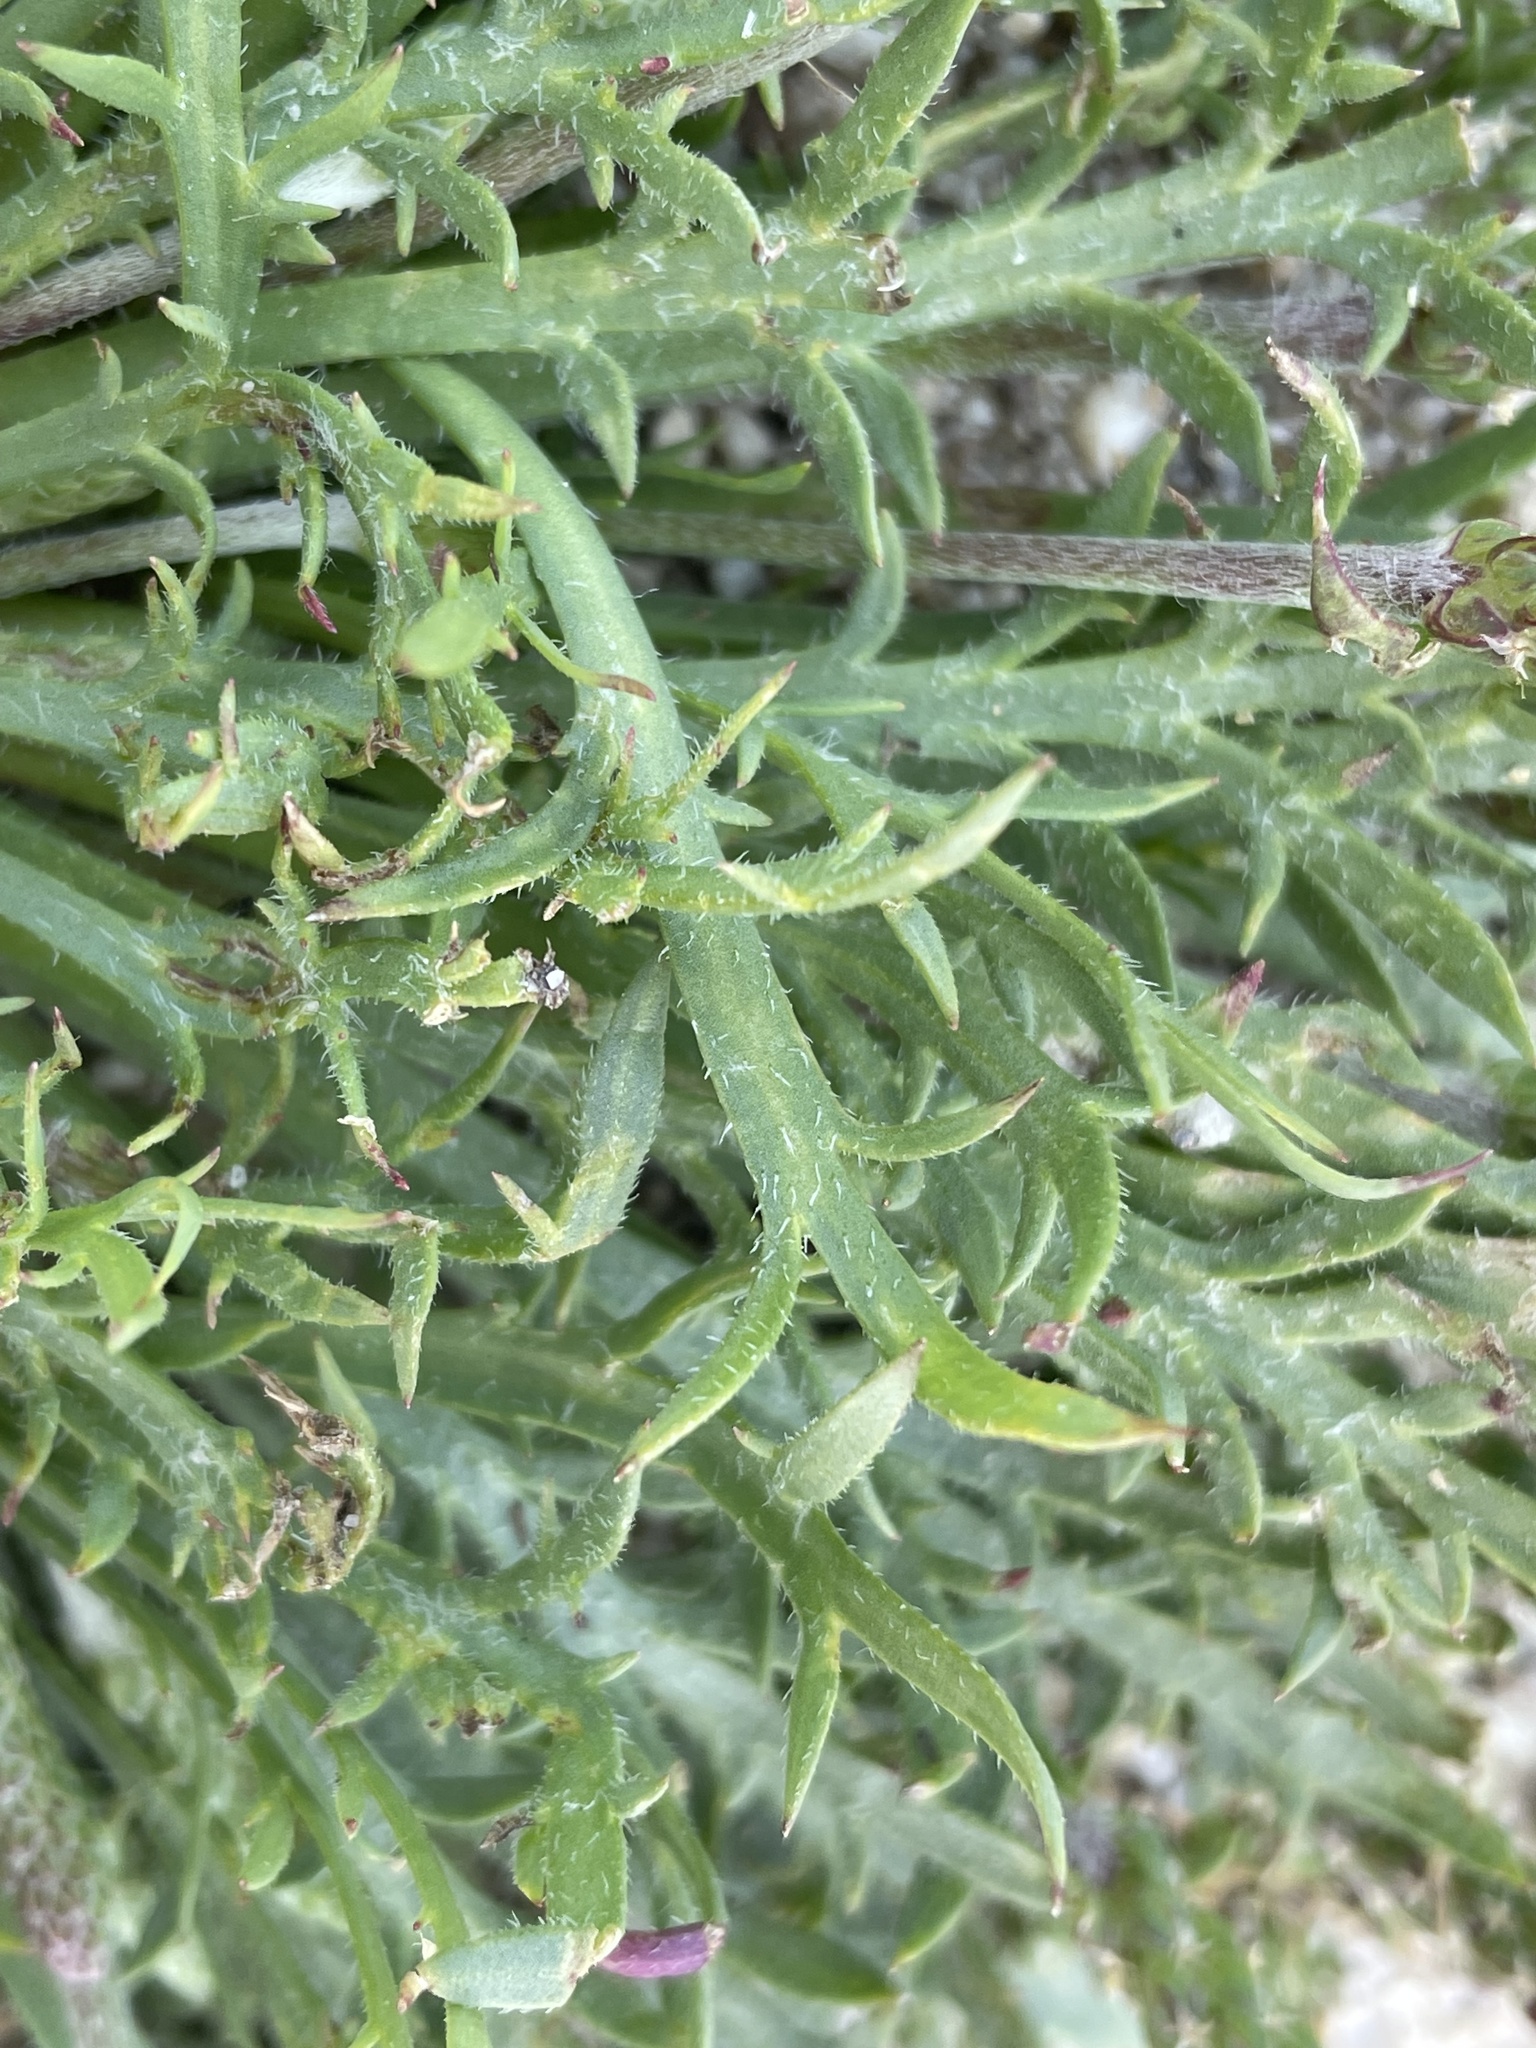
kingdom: Plantae
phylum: Tracheophyta
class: Magnoliopsida
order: Lamiales
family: Plantaginaceae
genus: Plantago
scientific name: Plantago coronopus
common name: Buck's-horn plantain
